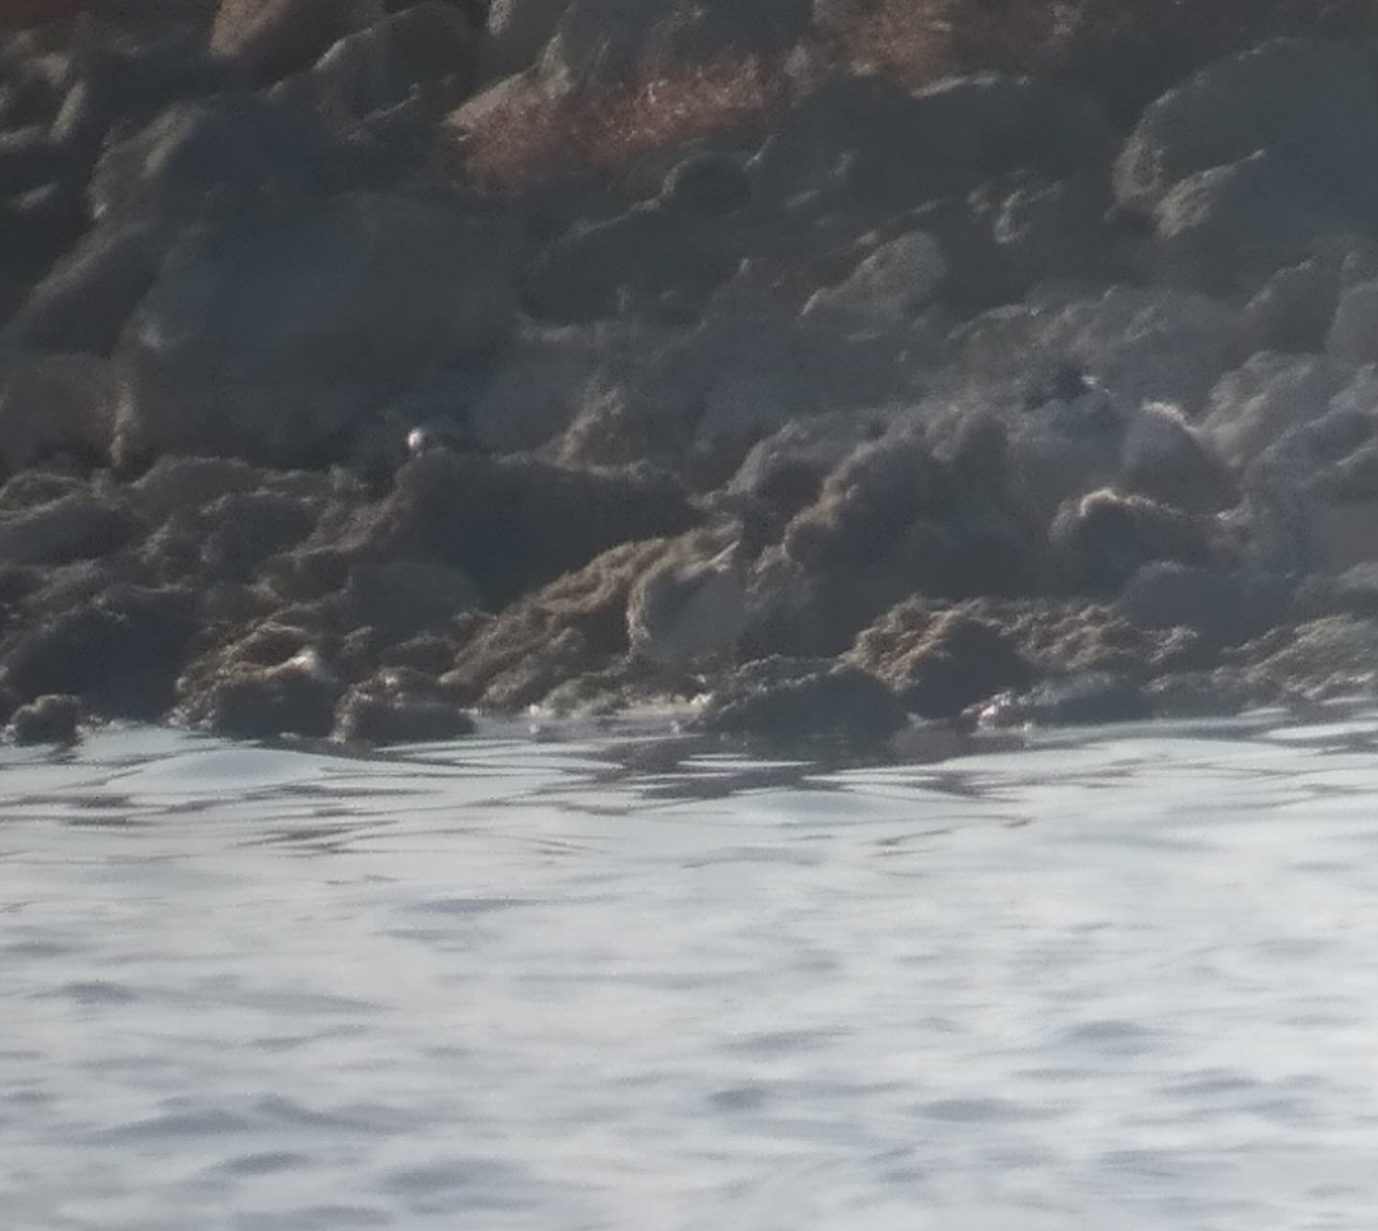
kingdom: Animalia
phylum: Chordata
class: Aves
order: Charadriiformes
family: Scolopacidae
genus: Tringa
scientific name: Tringa brevipes
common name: Grey-tailed tattler
